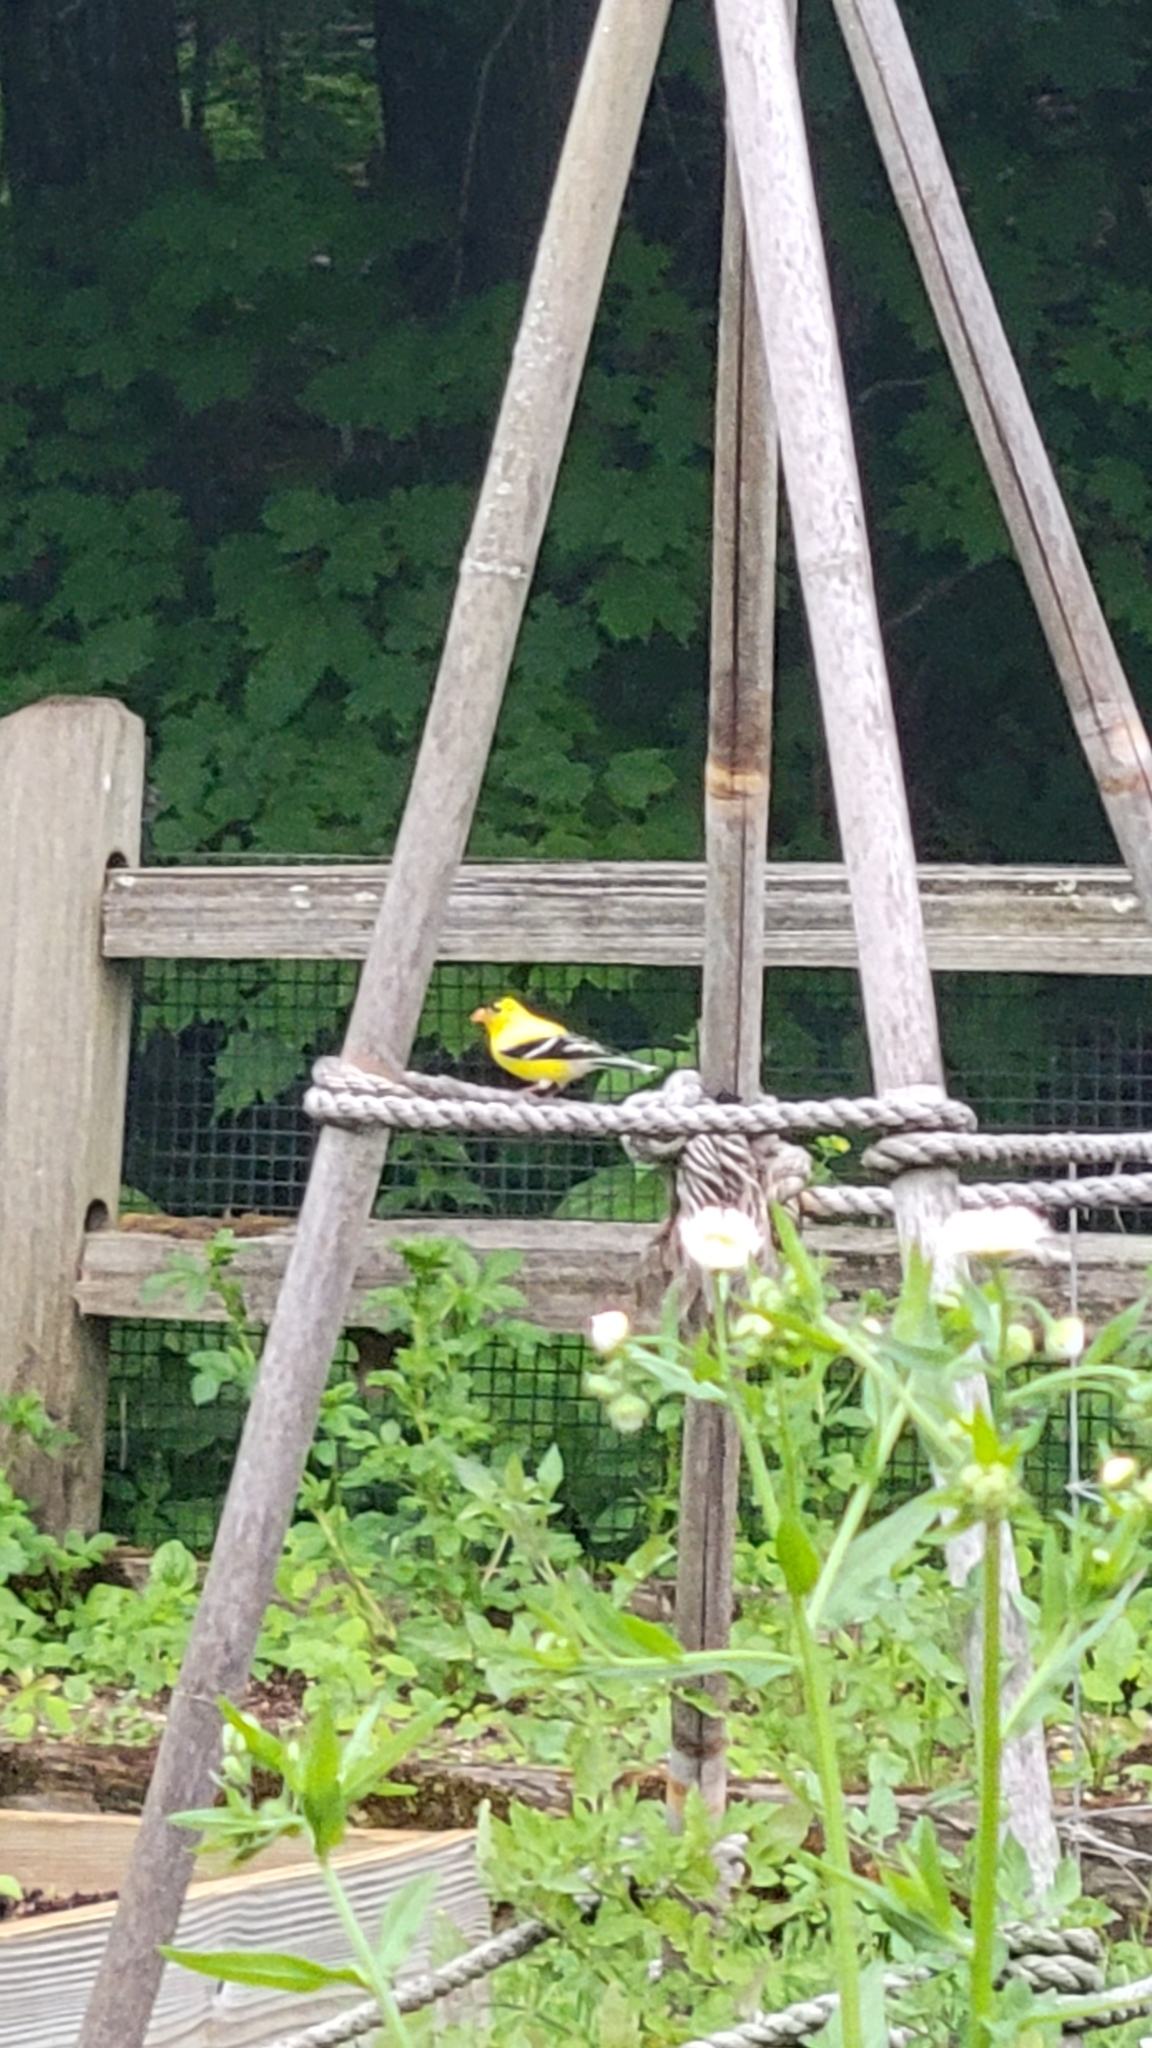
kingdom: Animalia
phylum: Chordata
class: Aves
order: Passeriformes
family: Fringillidae
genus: Spinus
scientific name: Spinus tristis
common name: American goldfinch
